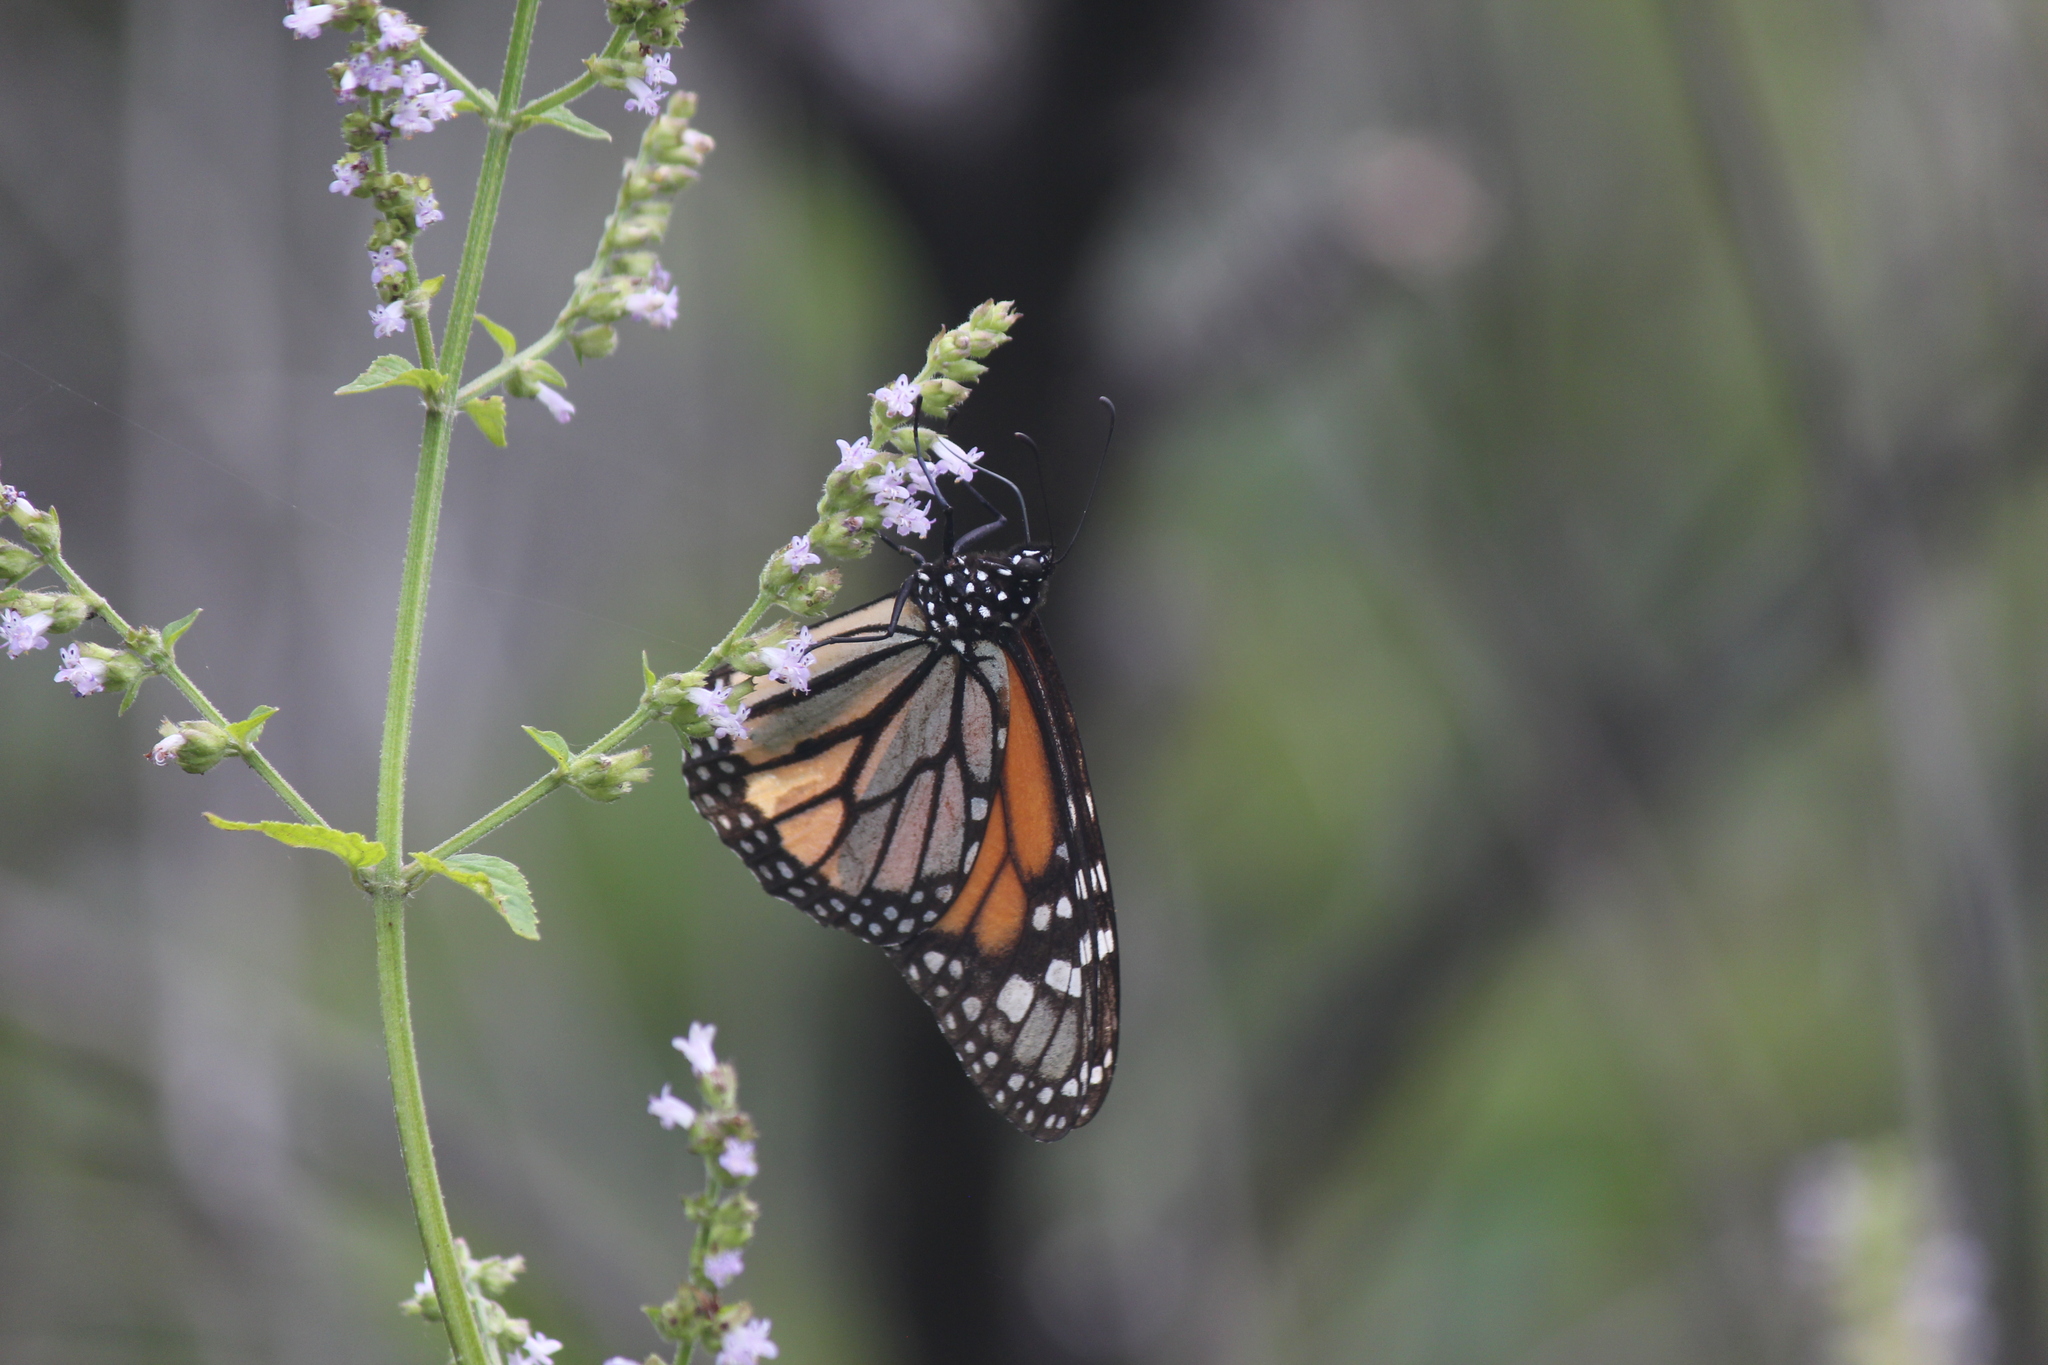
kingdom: Animalia
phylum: Arthropoda
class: Insecta
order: Lepidoptera
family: Nymphalidae
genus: Danaus
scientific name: Danaus plexippus
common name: Monarch
